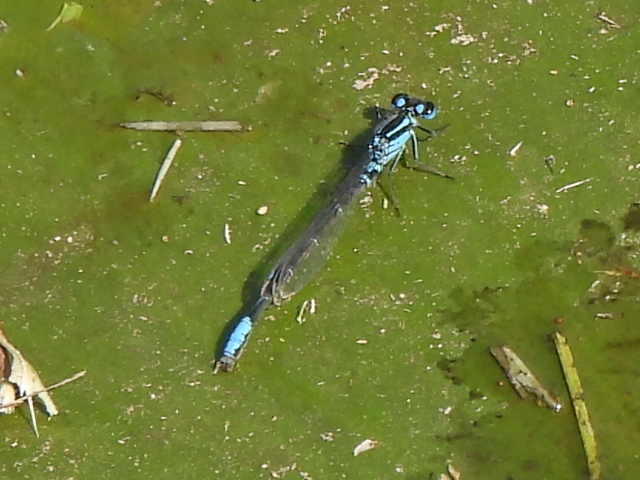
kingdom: Animalia
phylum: Arthropoda
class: Insecta
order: Odonata
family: Coenagrionidae
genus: Ischnura
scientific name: Ischnura kellicotti
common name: Lilypad forktail
